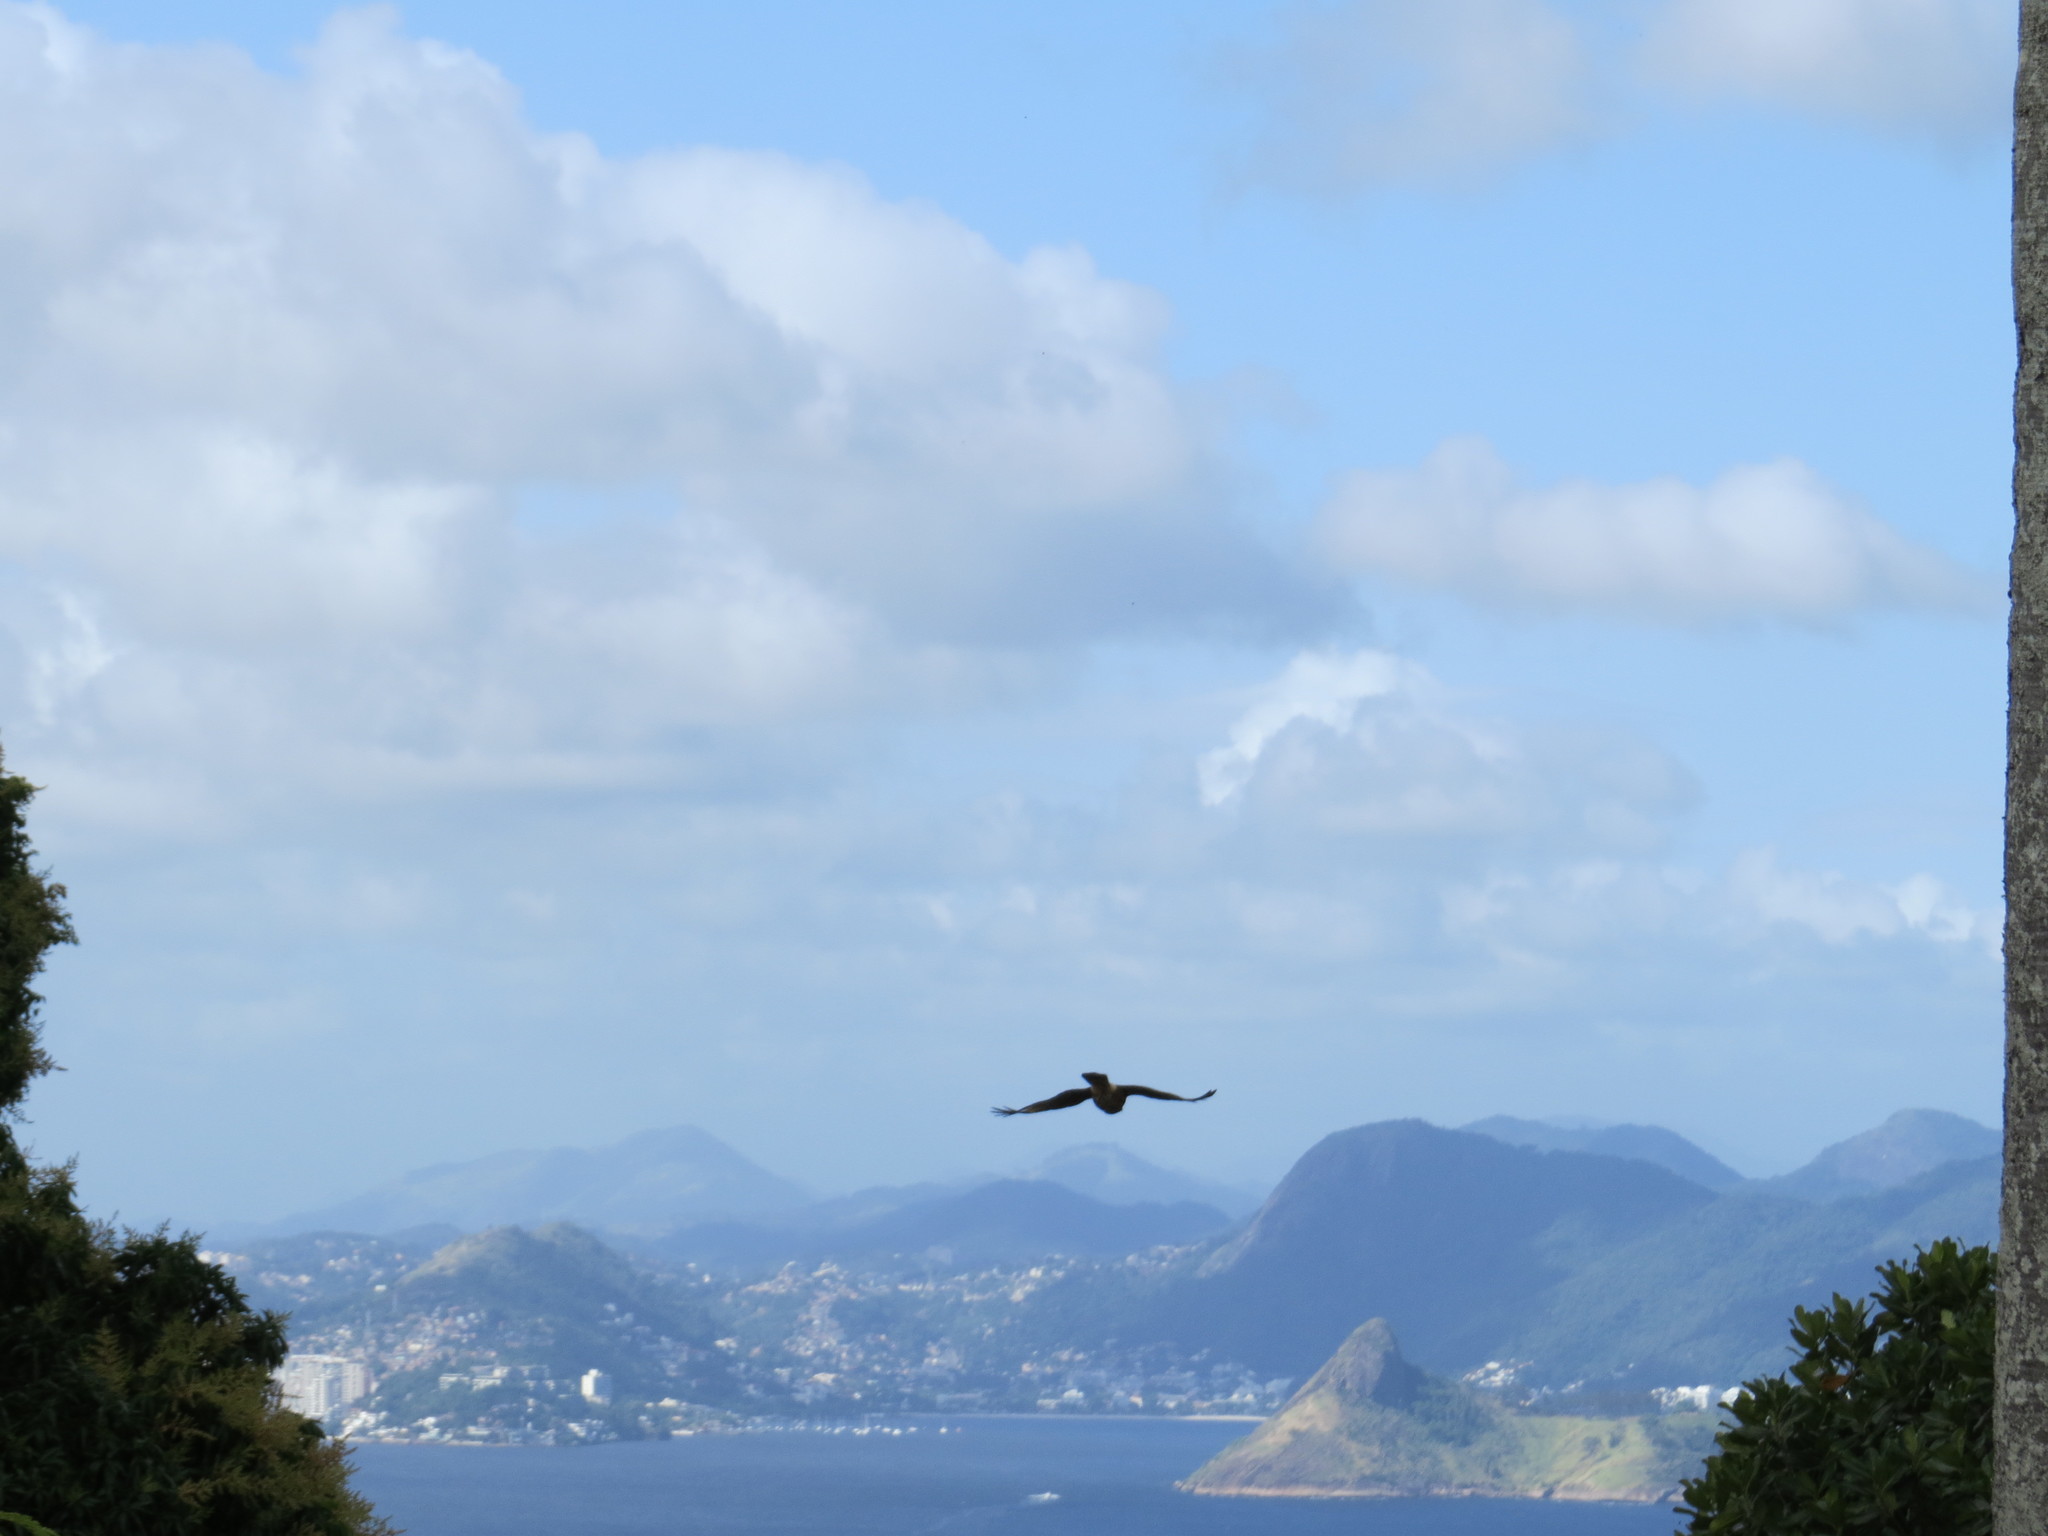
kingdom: Animalia
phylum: Chordata
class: Aves
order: Falconiformes
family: Falconidae
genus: Daptrius
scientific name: Daptrius
